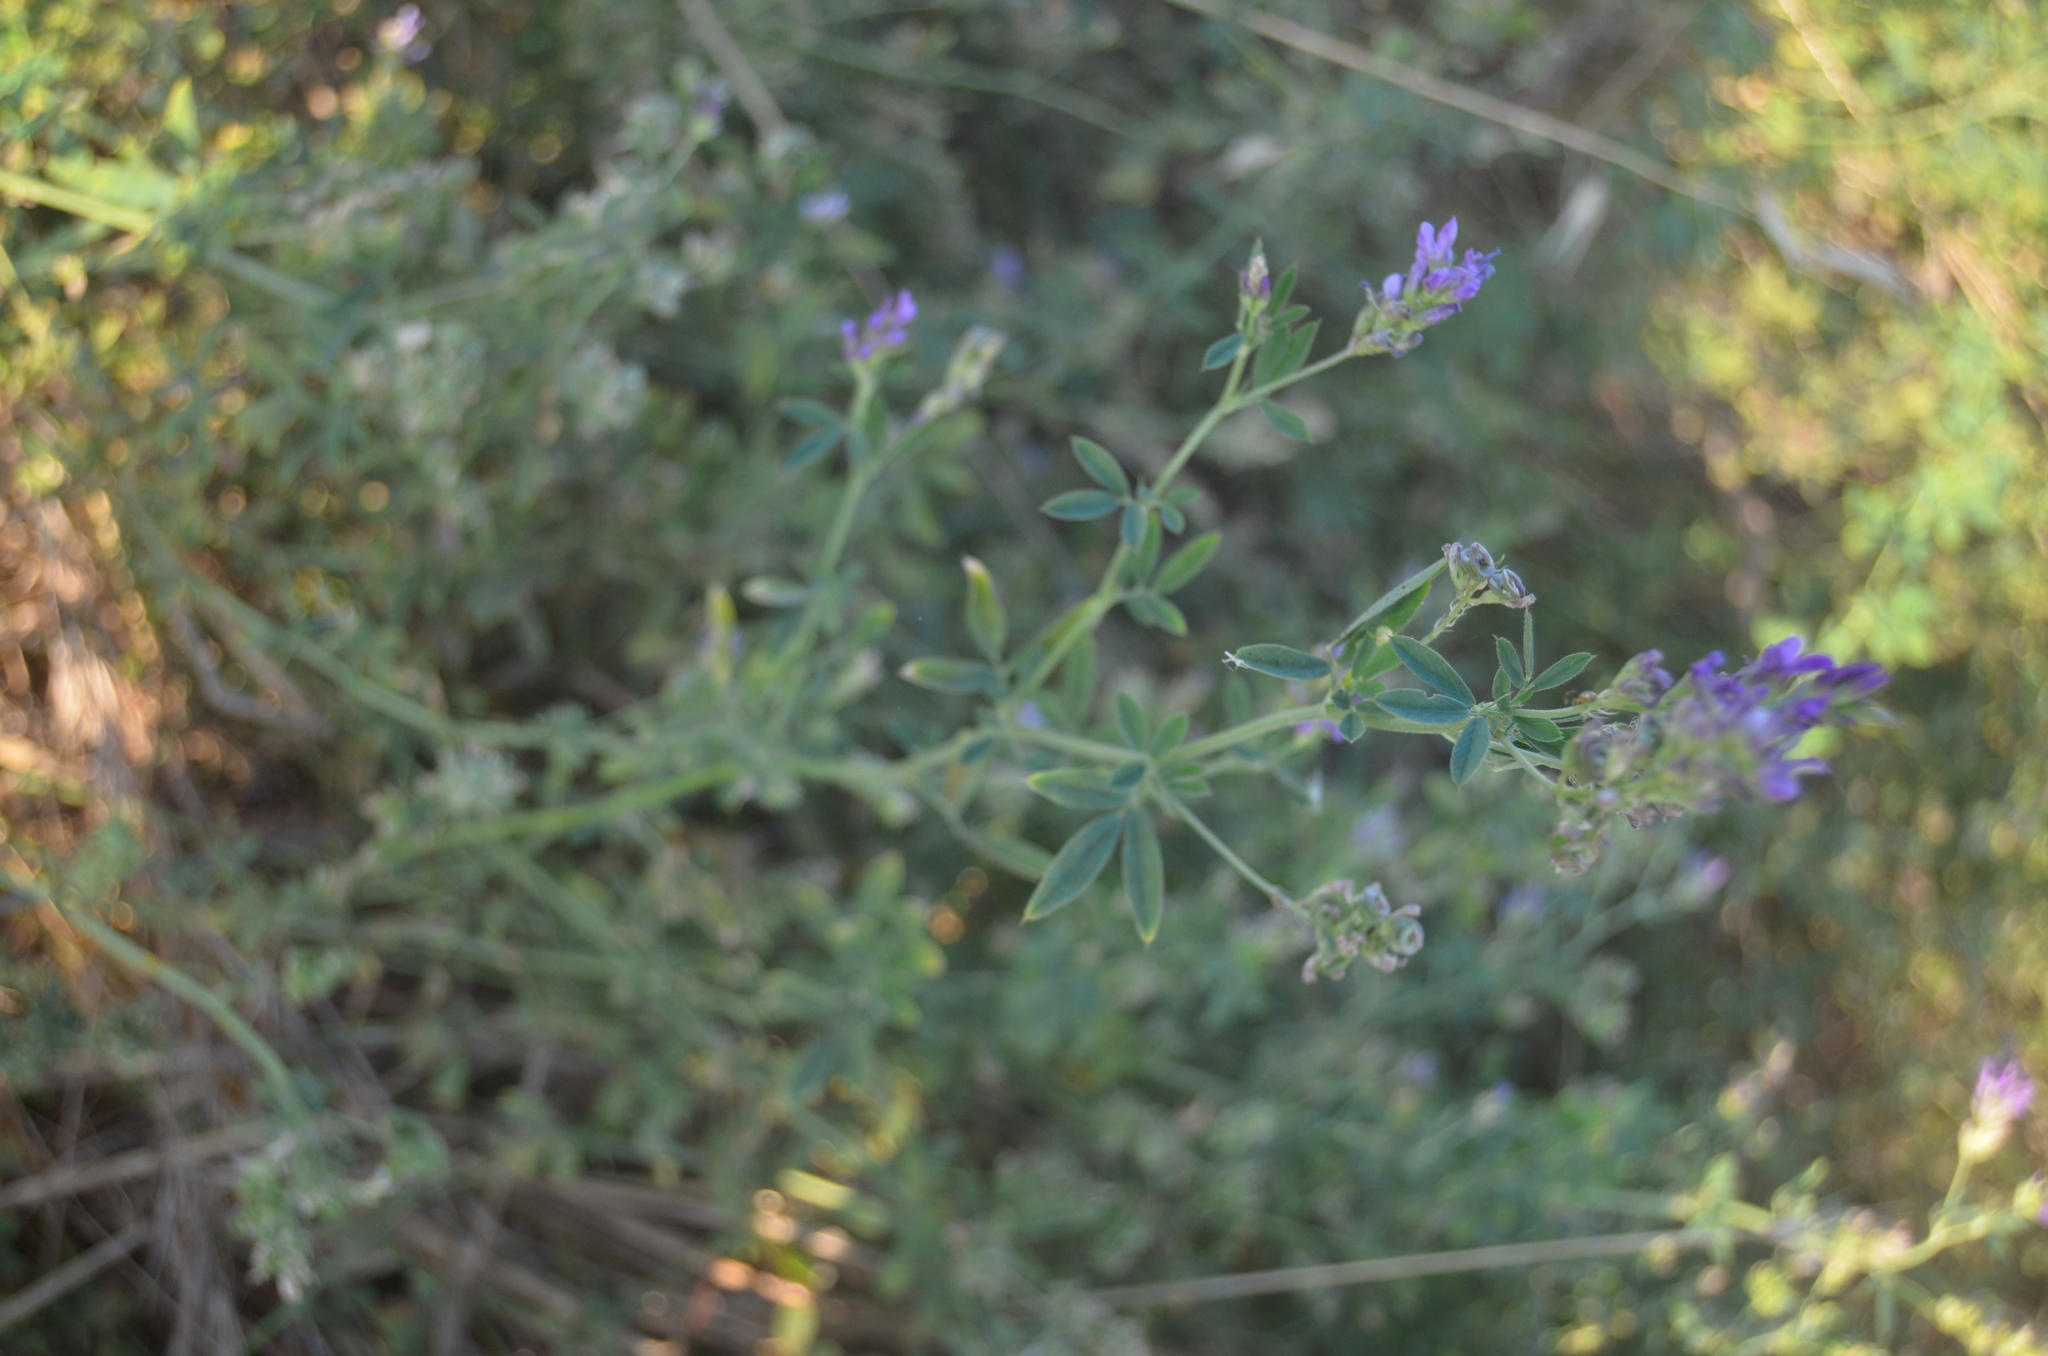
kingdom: Plantae
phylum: Tracheophyta
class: Magnoliopsida
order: Fabales
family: Fabaceae
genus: Medicago
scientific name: Medicago sativa
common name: Alfalfa
